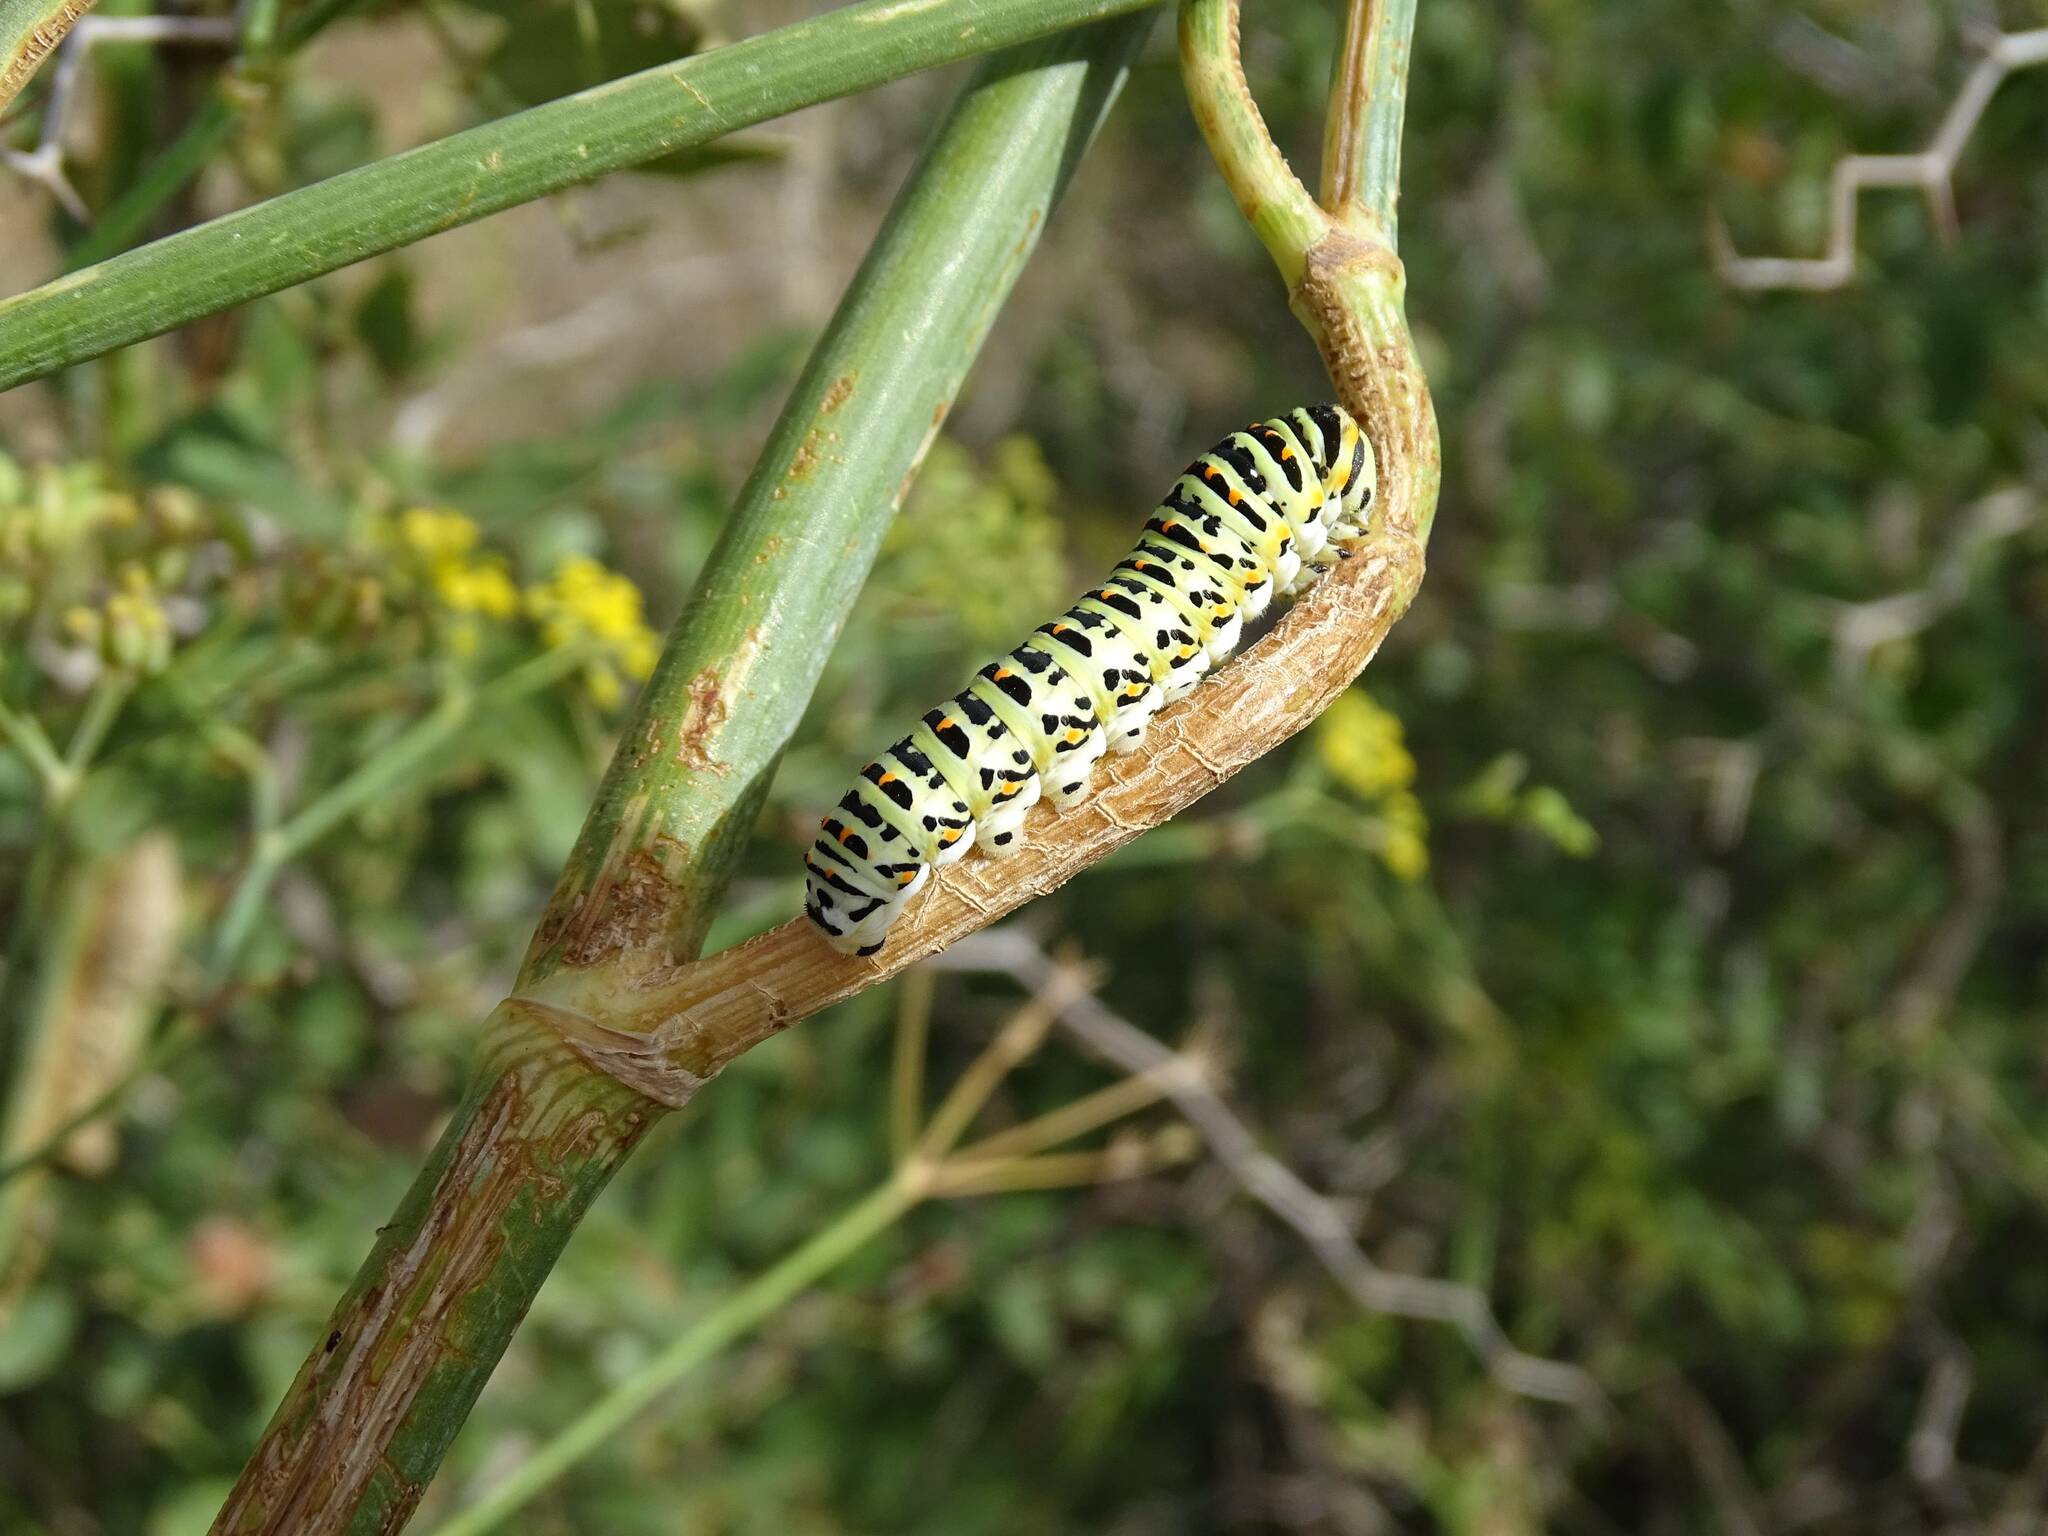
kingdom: Animalia
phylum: Arthropoda
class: Insecta
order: Lepidoptera
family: Papilionidae
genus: Papilio
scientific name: Papilio machaon
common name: Swallowtail
